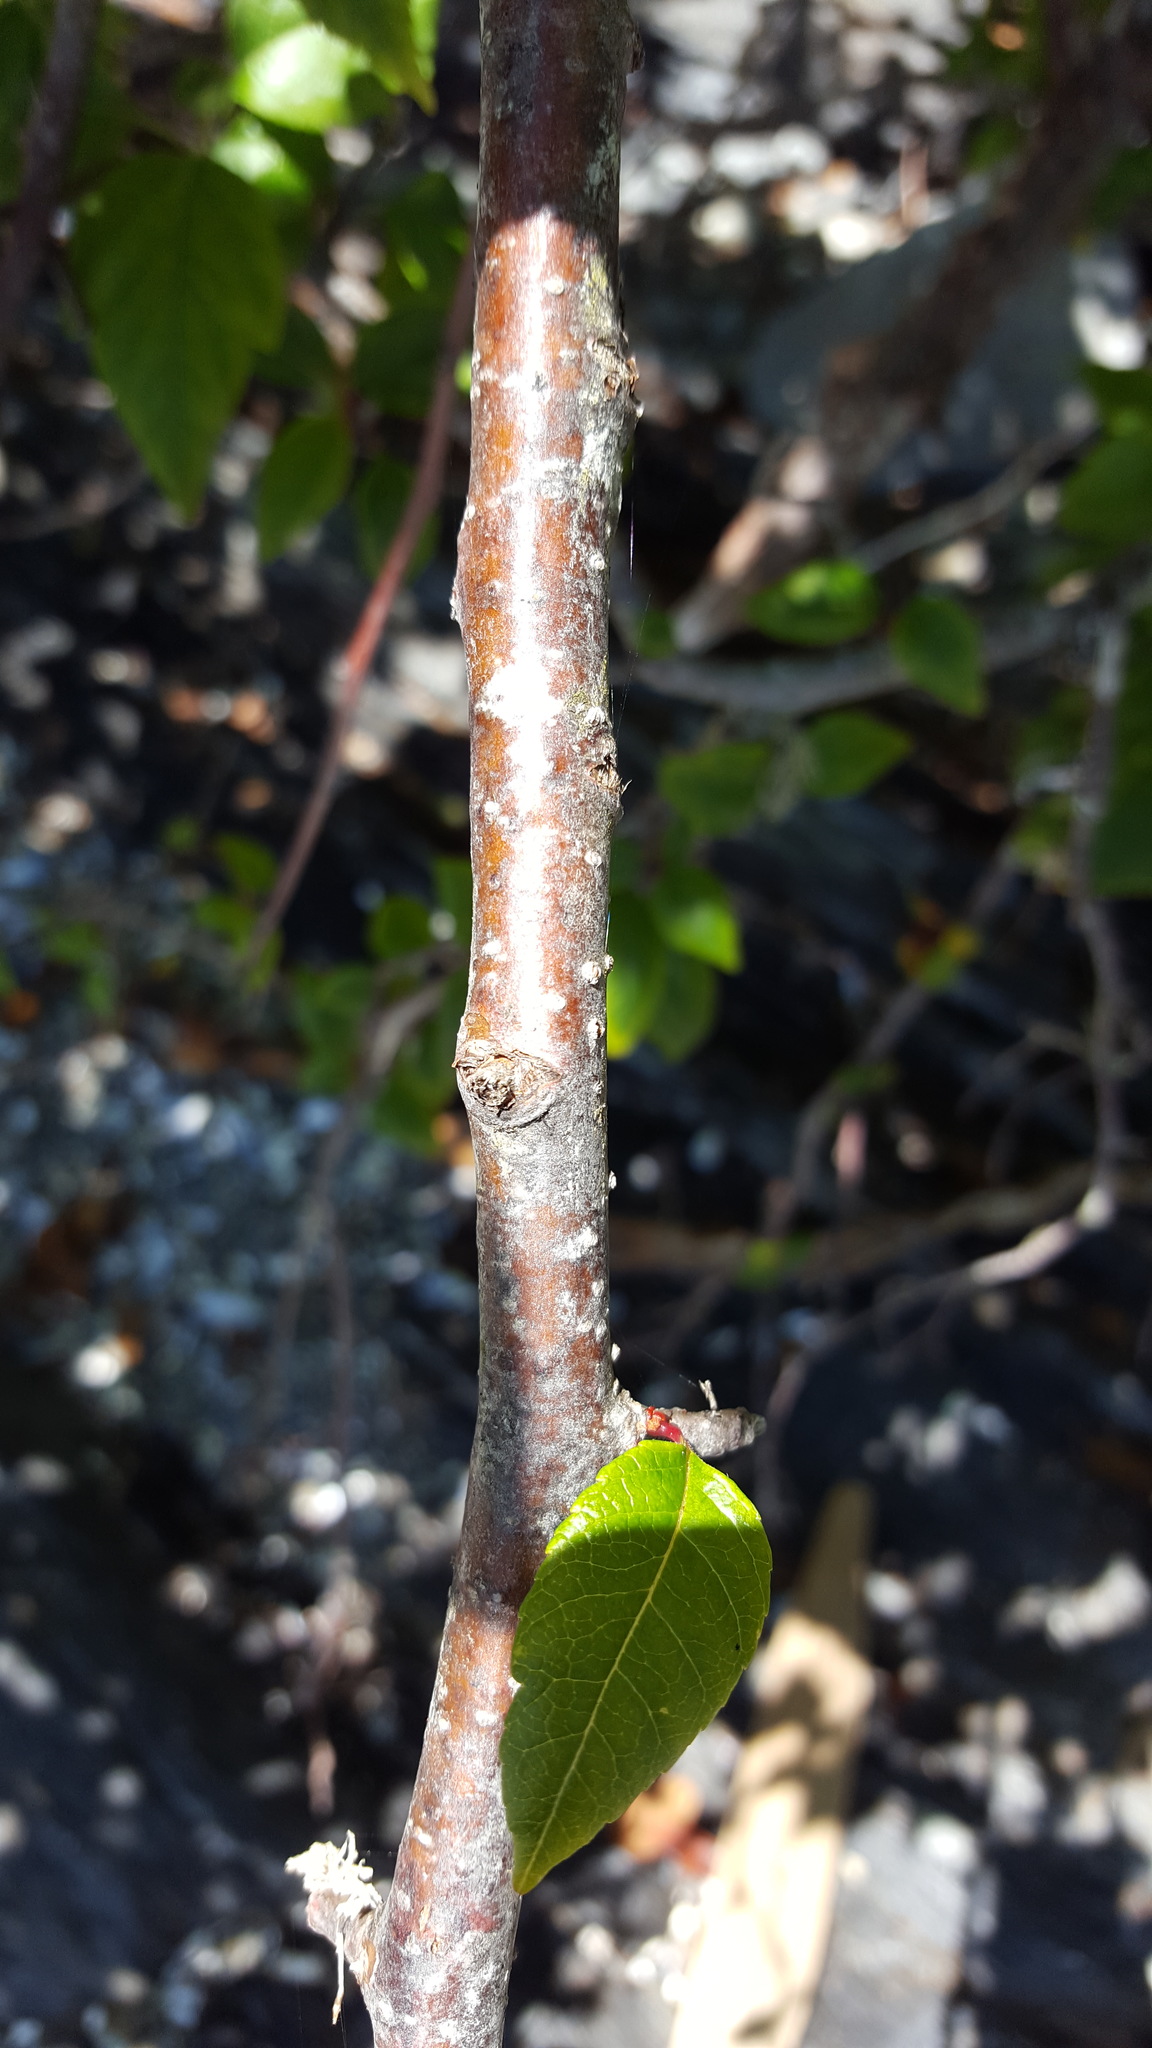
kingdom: Plantae
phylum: Tracheophyta
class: Magnoliopsida
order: Rosales
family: Rosaceae
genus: Malus
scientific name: Malus fusca
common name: Oregon crab apple
